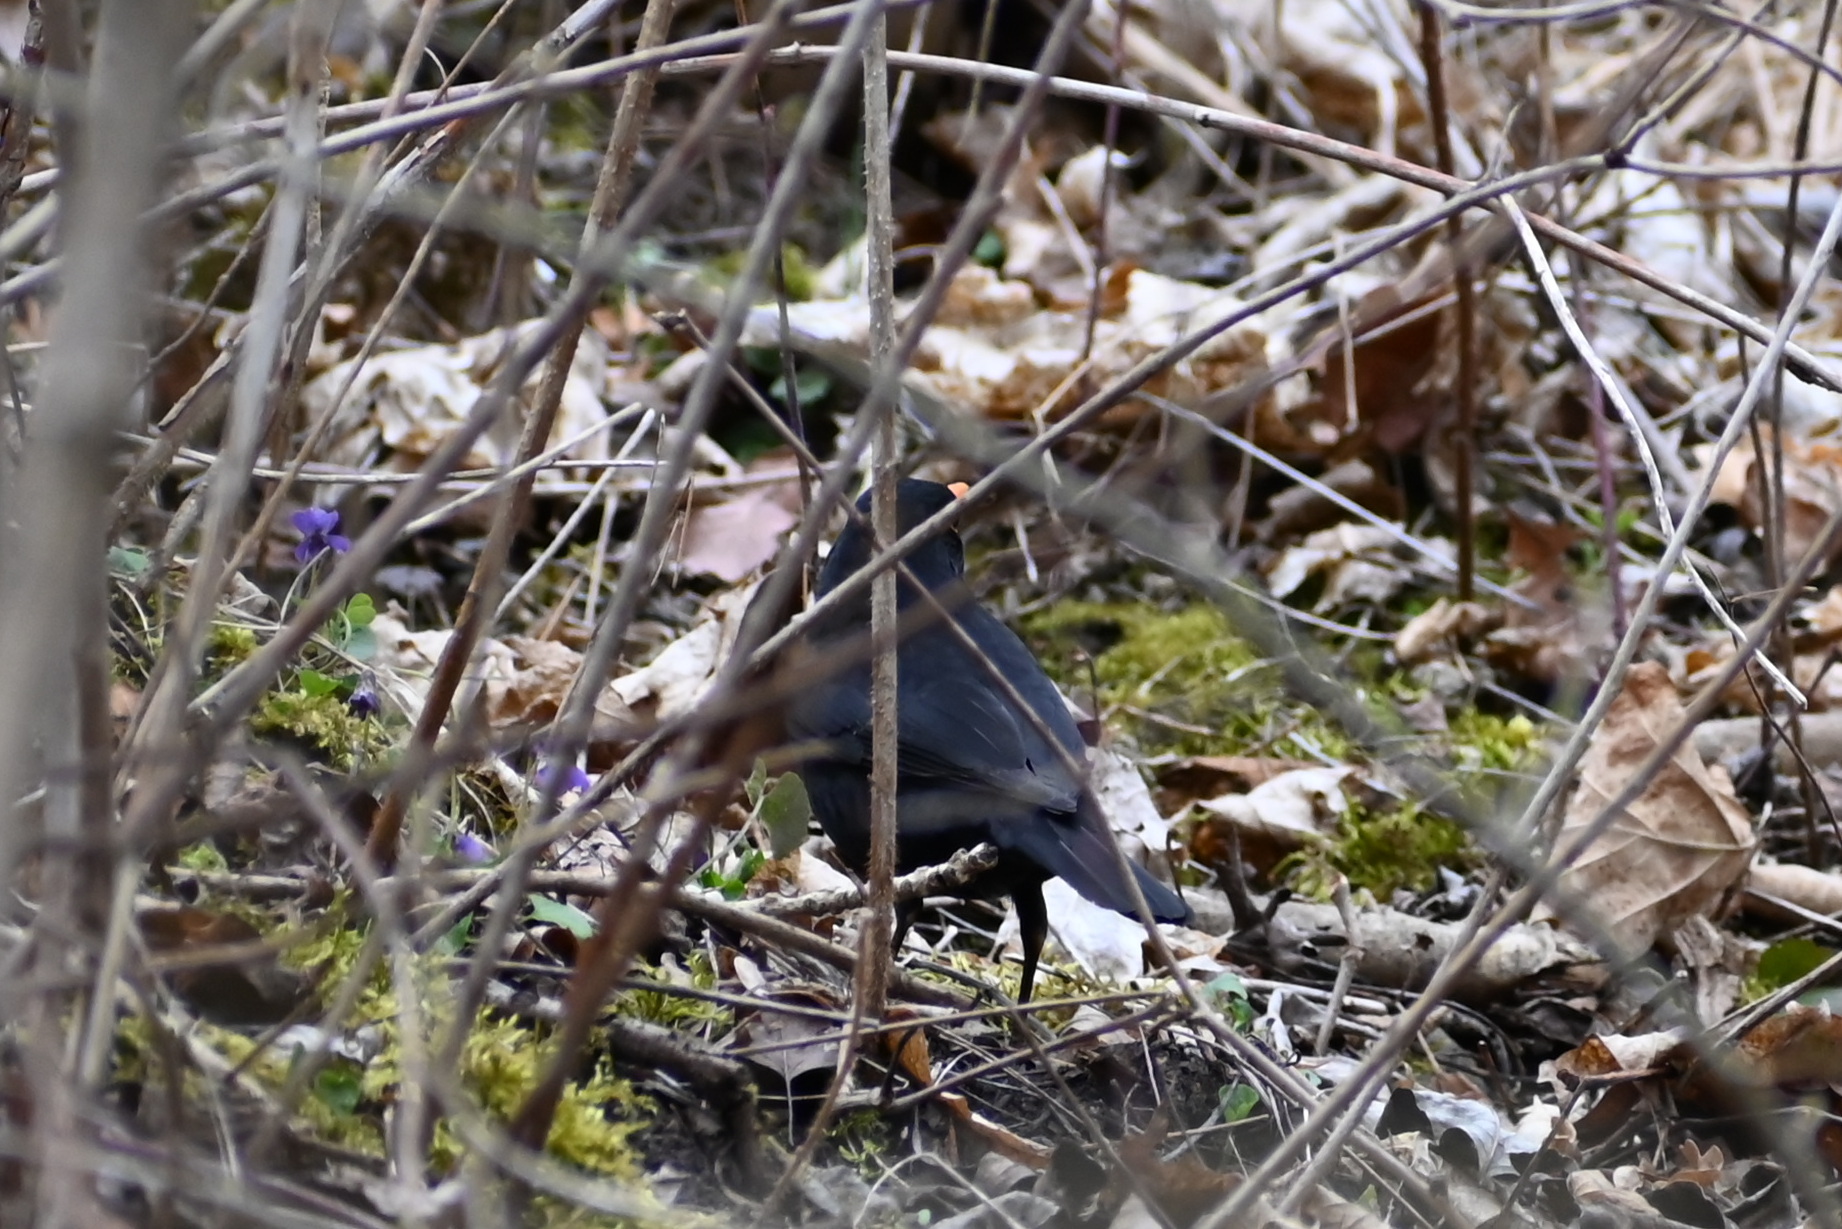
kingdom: Animalia
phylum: Chordata
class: Aves
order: Passeriformes
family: Turdidae
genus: Turdus
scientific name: Turdus merula
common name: Common blackbird
